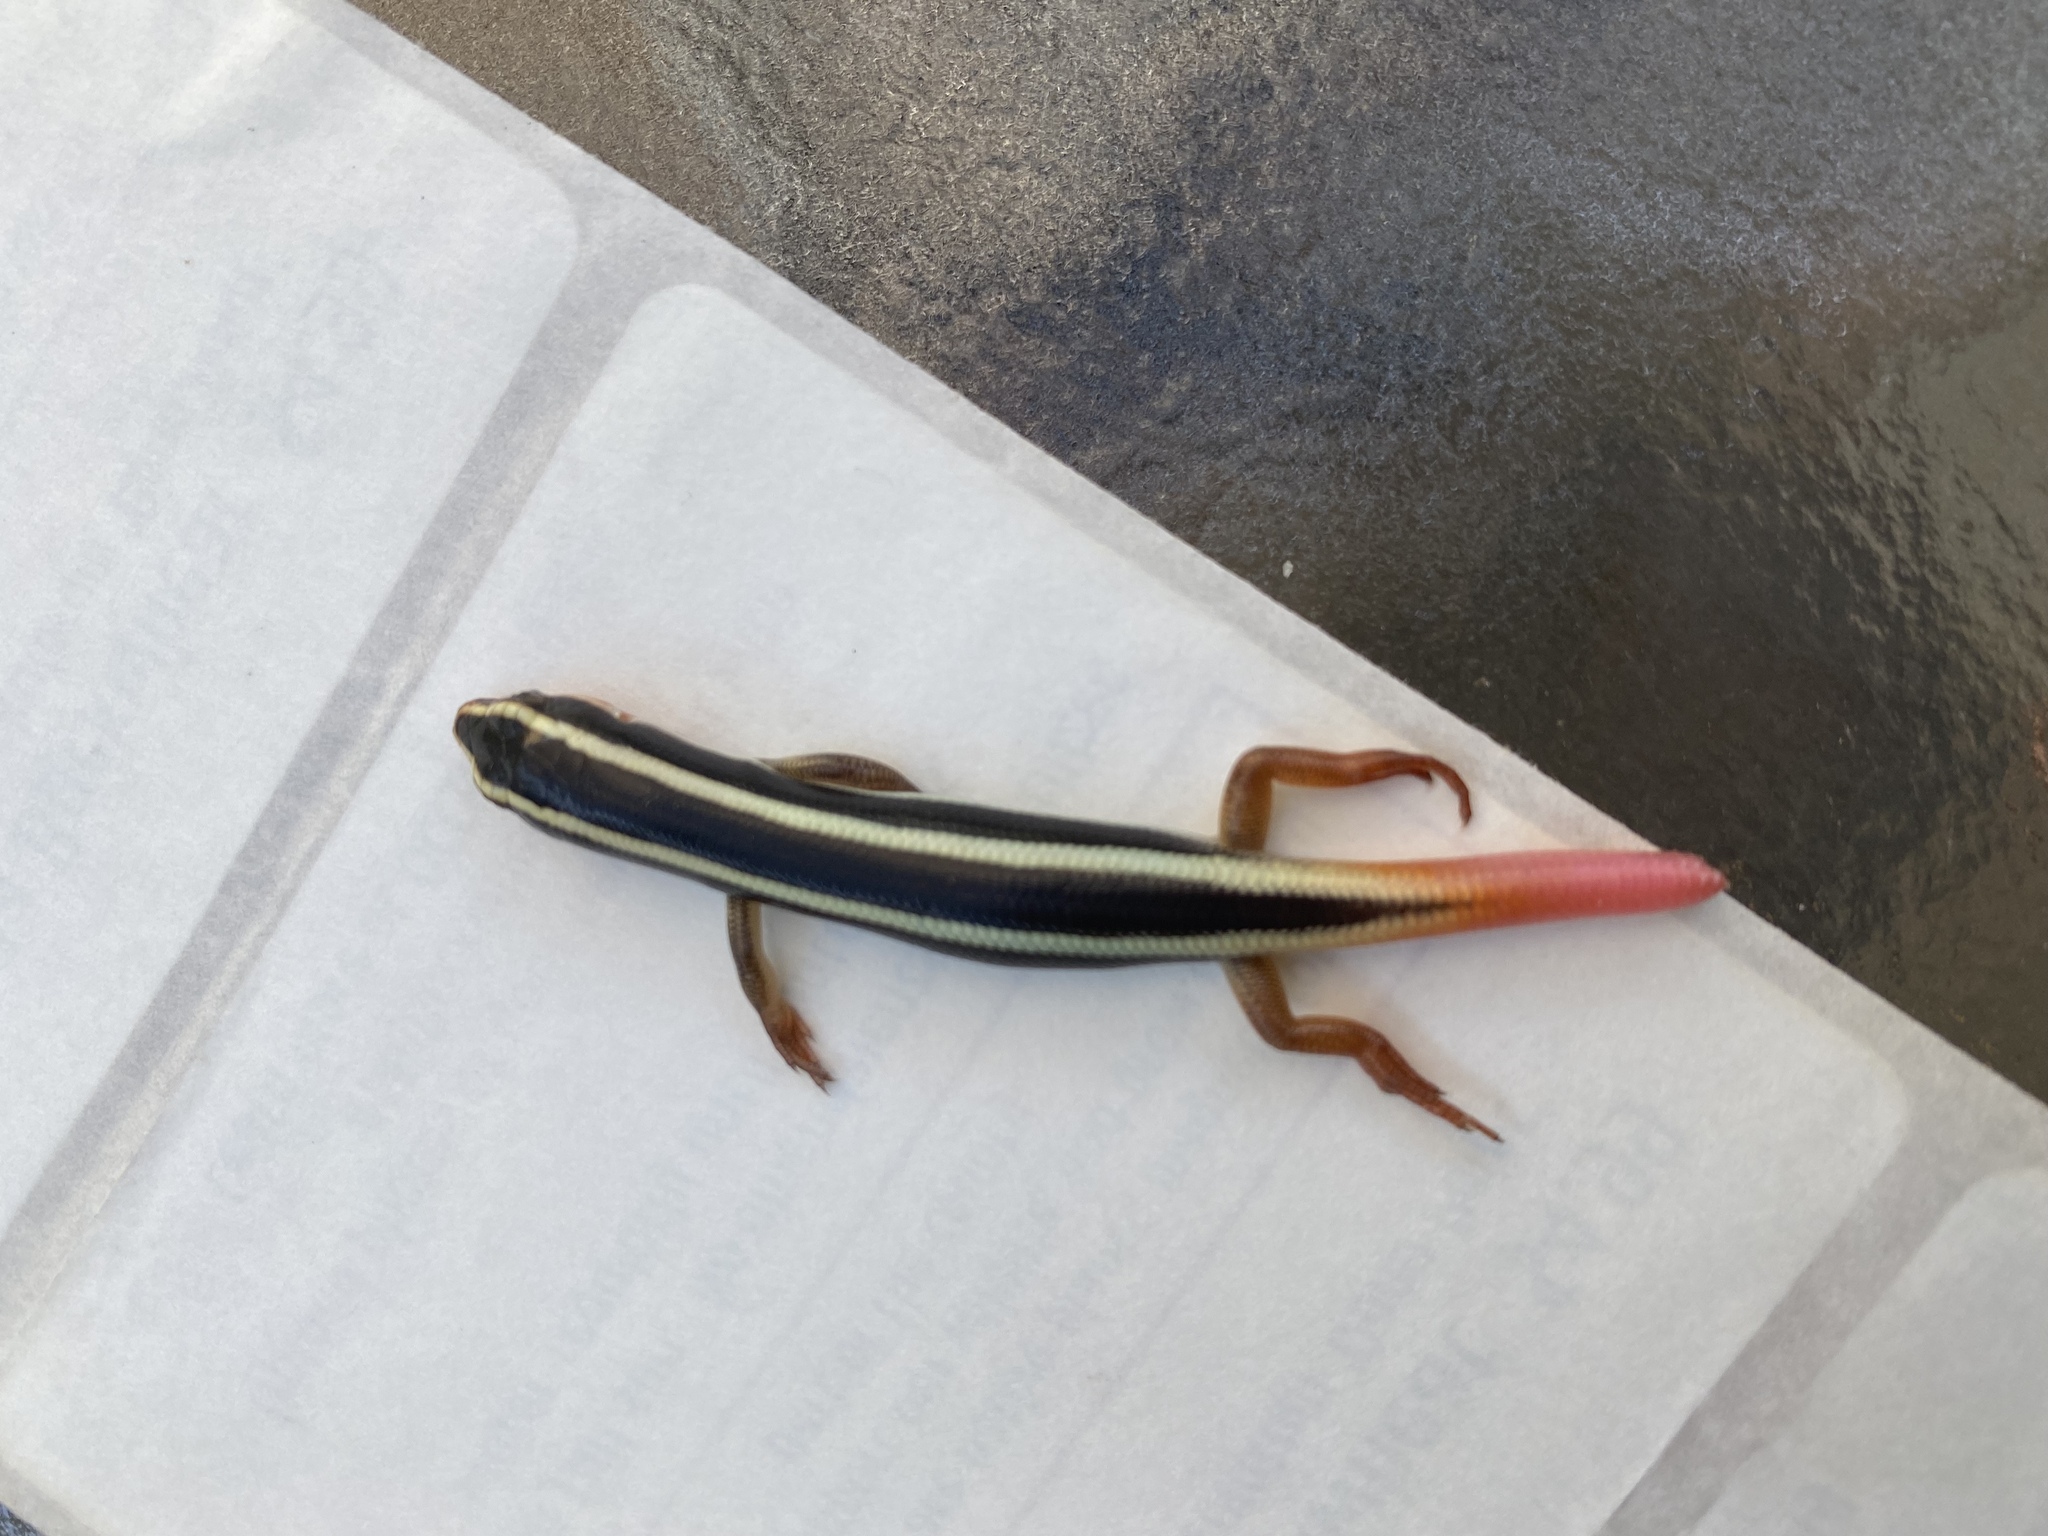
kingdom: Animalia
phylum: Chordata
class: Squamata
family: Scincidae
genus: Plestiodon
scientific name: Plestiodon gilberti
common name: Gilbert's skink
